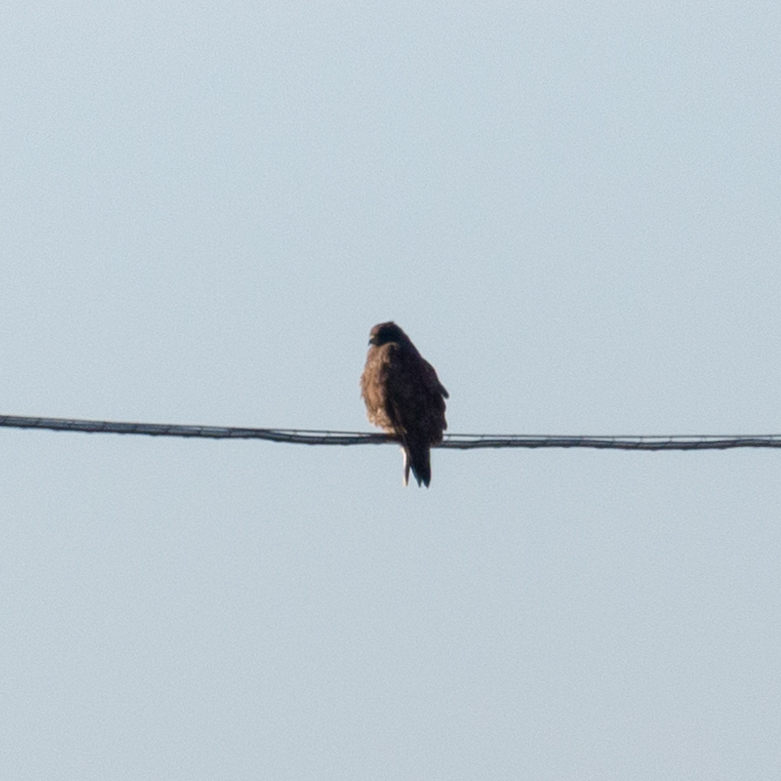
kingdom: Animalia
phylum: Chordata
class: Aves
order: Accipitriformes
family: Accipitridae
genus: Buteo
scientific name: Buteo buteo
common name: Common buzzard
